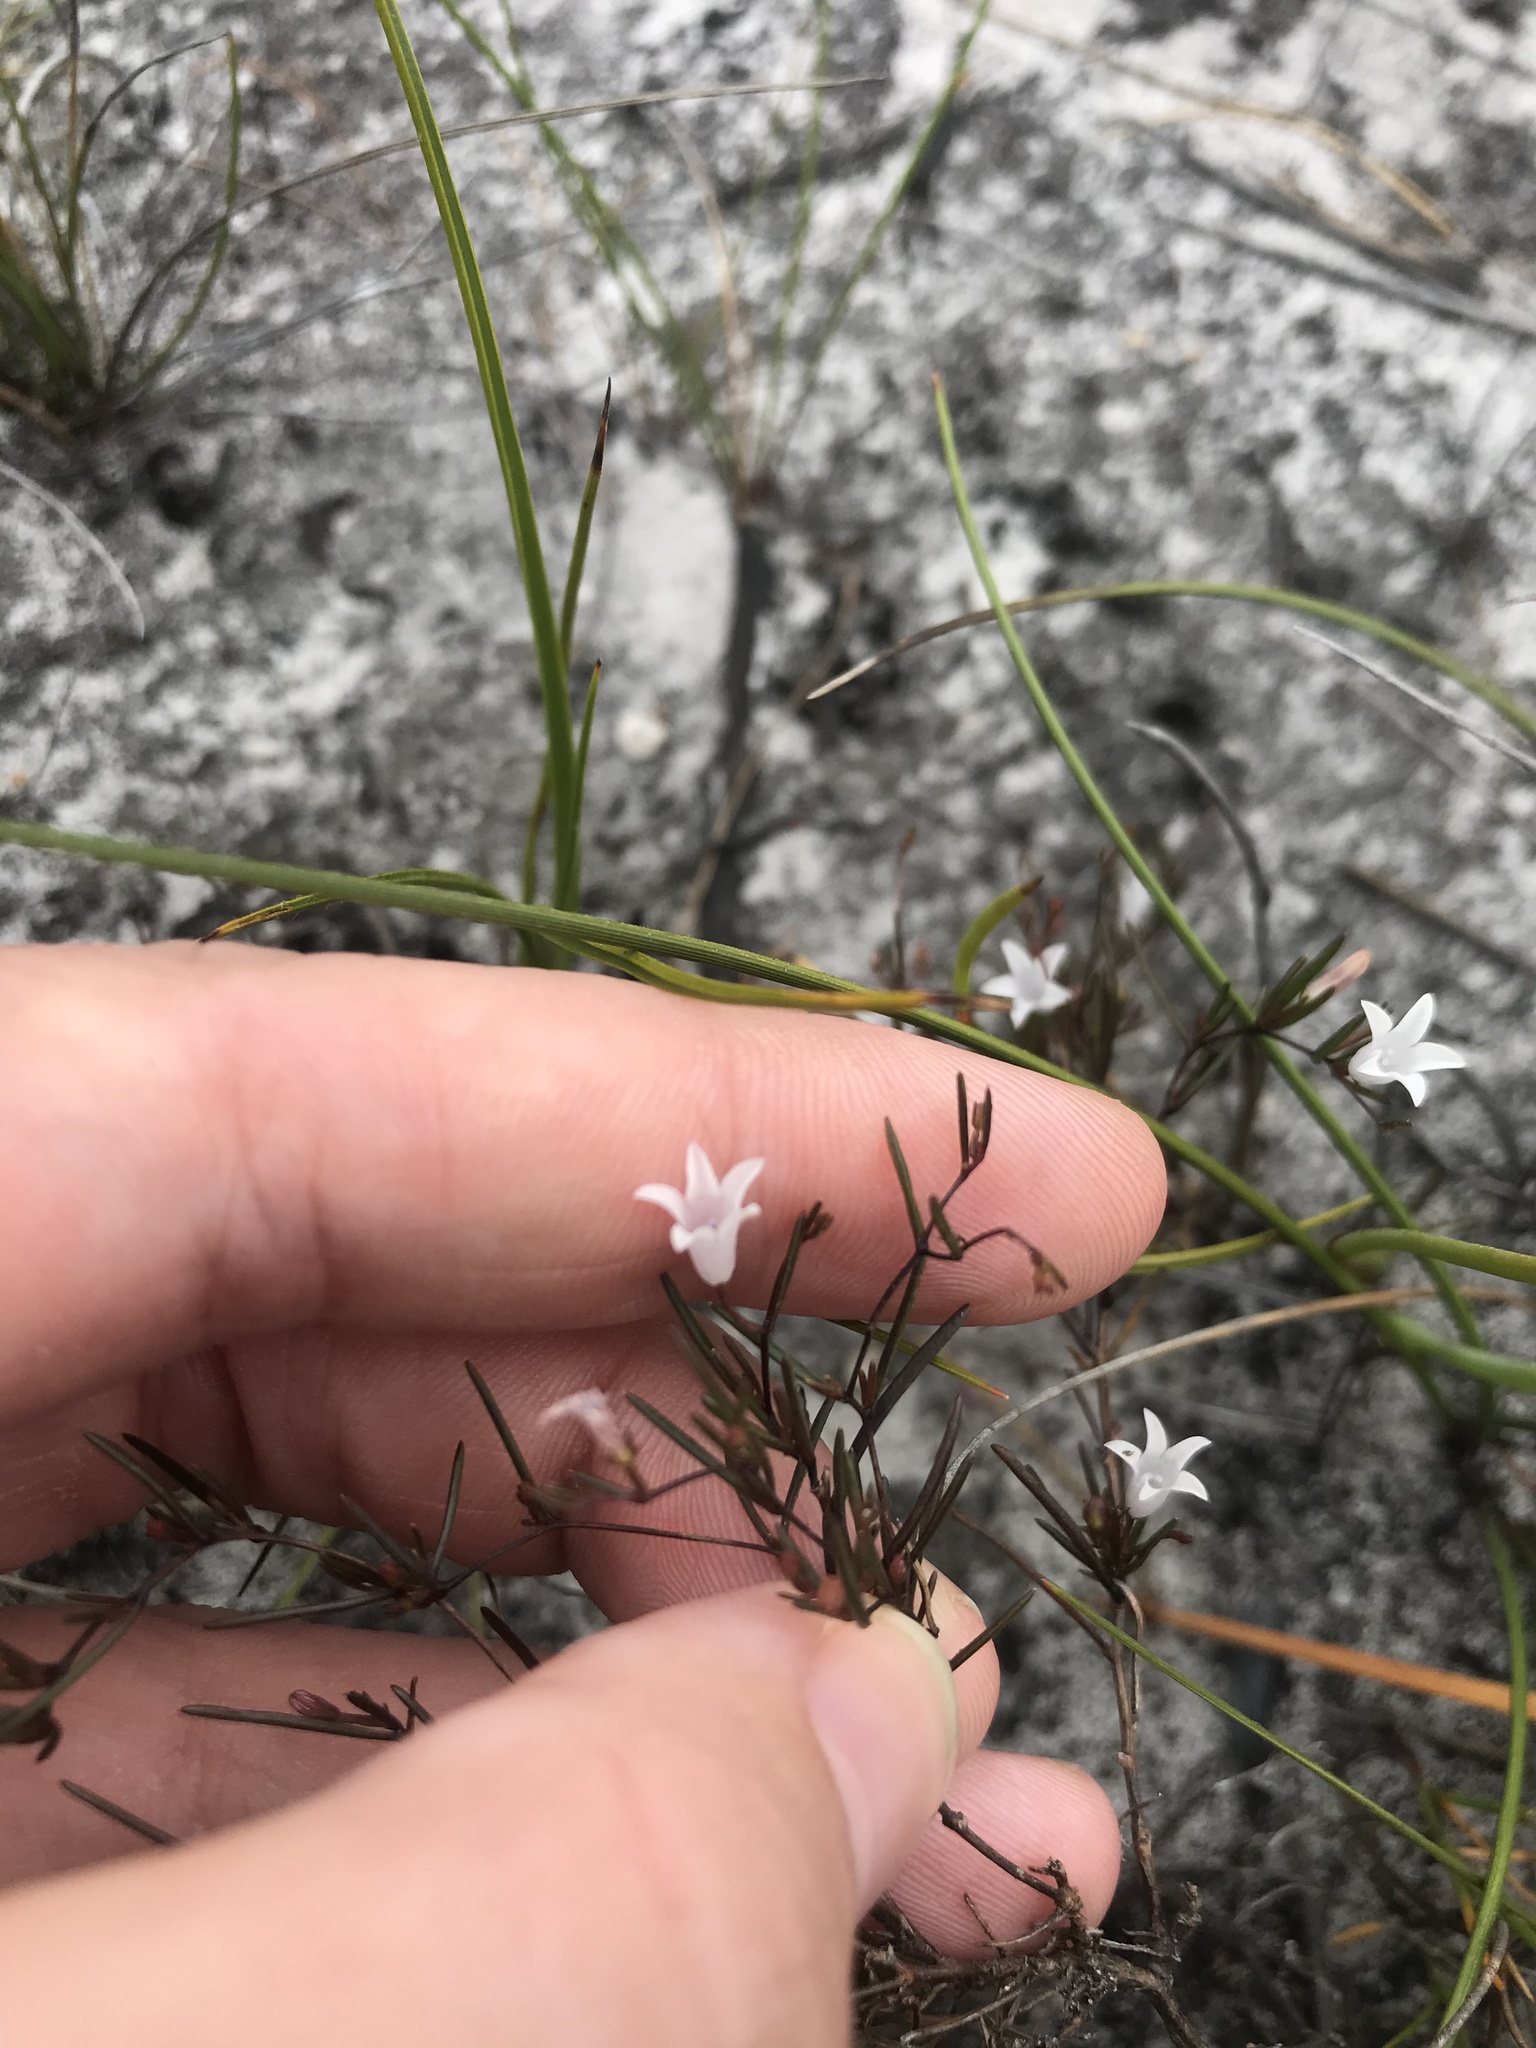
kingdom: Plantae
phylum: Tracheophyta
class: Magnoliopsida
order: Asterales
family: Campanulaceae
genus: Prismatocarpus
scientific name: Prismatocarpus sessilis
